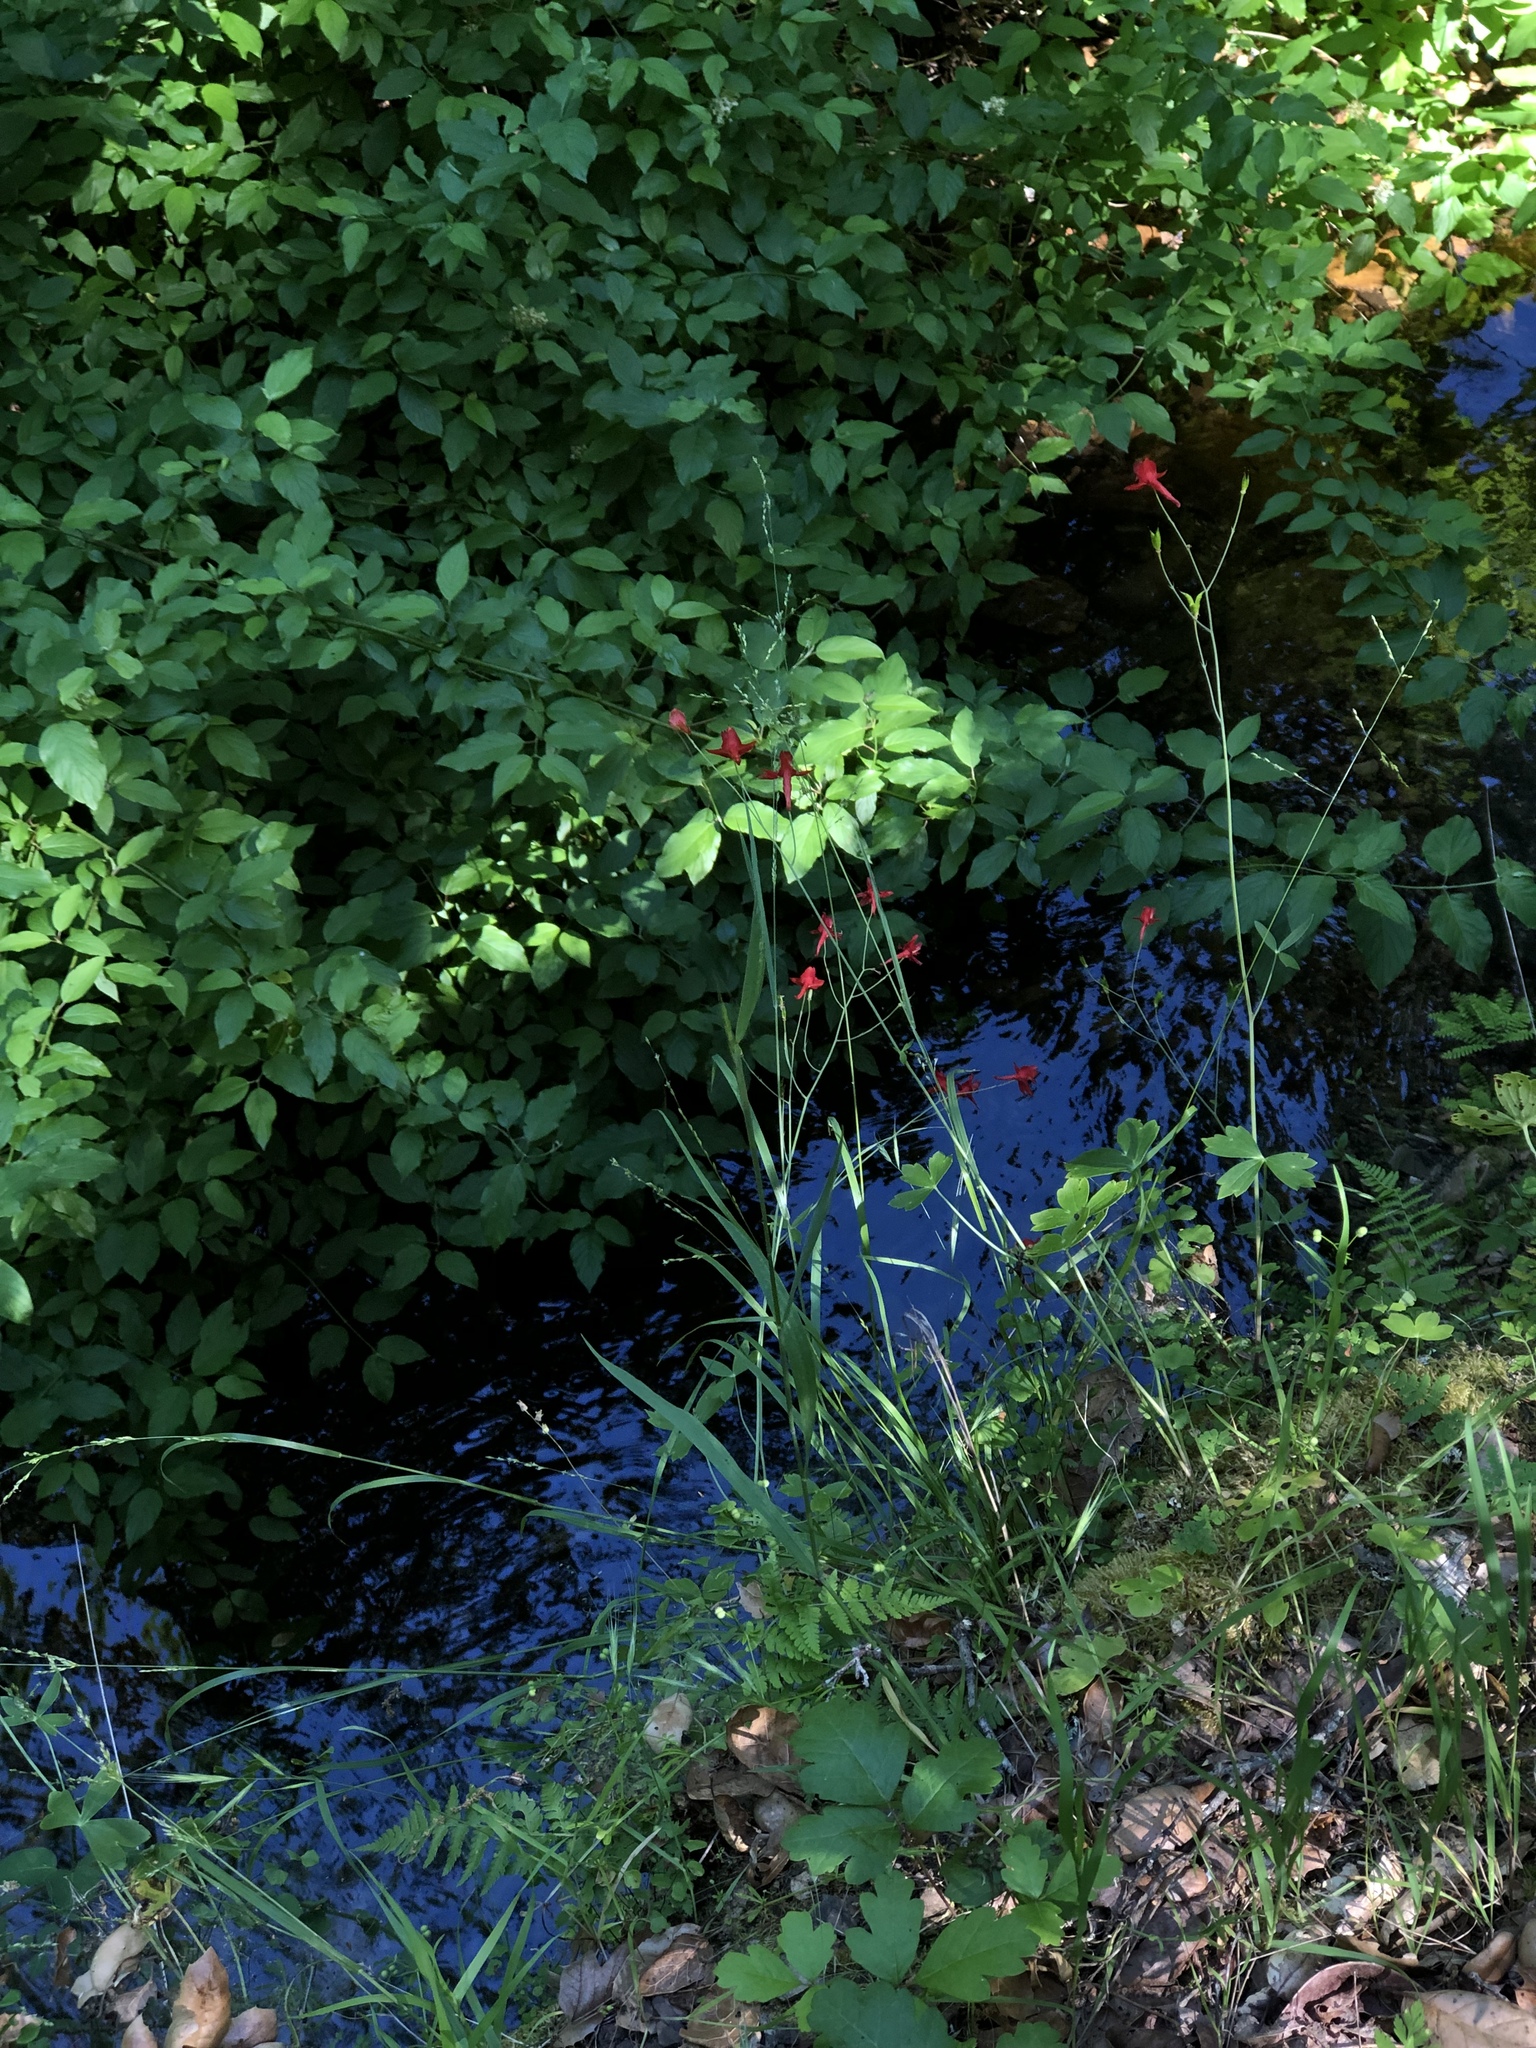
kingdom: Plantae
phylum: Tracheophyta
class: Magnoliopsida
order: Ranunculales
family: Ranunculaceae
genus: Delphinium
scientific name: Delphinium nudicaule
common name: Red larkspur
